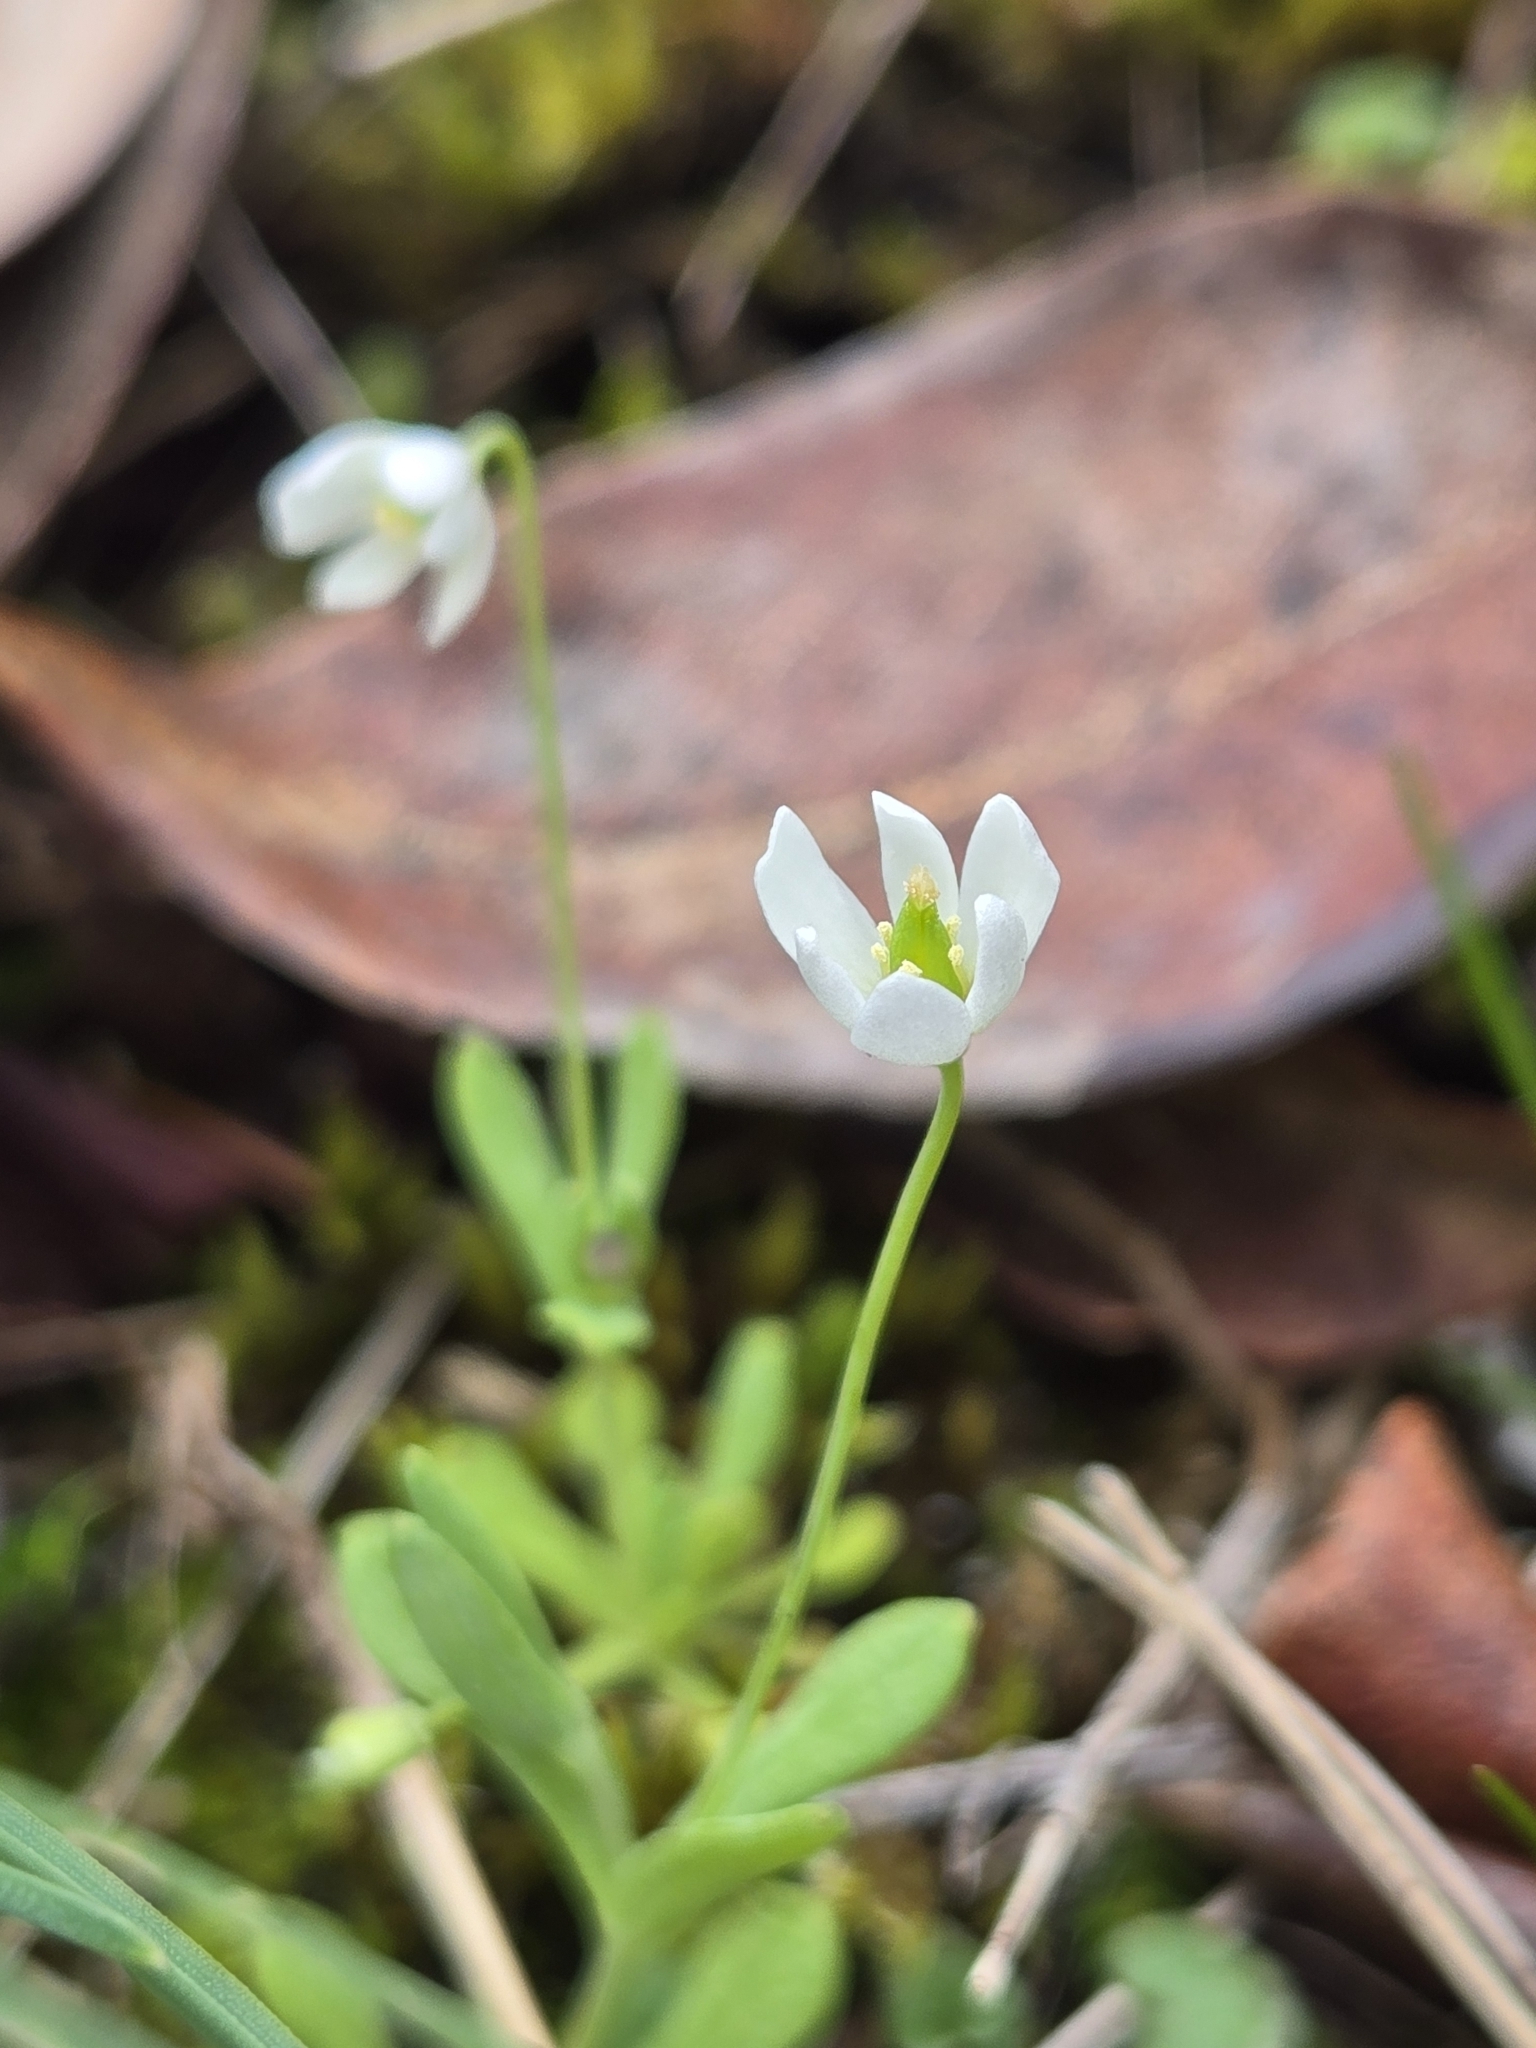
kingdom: Plantae
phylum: Tracheophyta
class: Magnoliopsida
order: Ranunculales
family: Papaveraceae
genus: Meconella
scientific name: Meconella oregana
